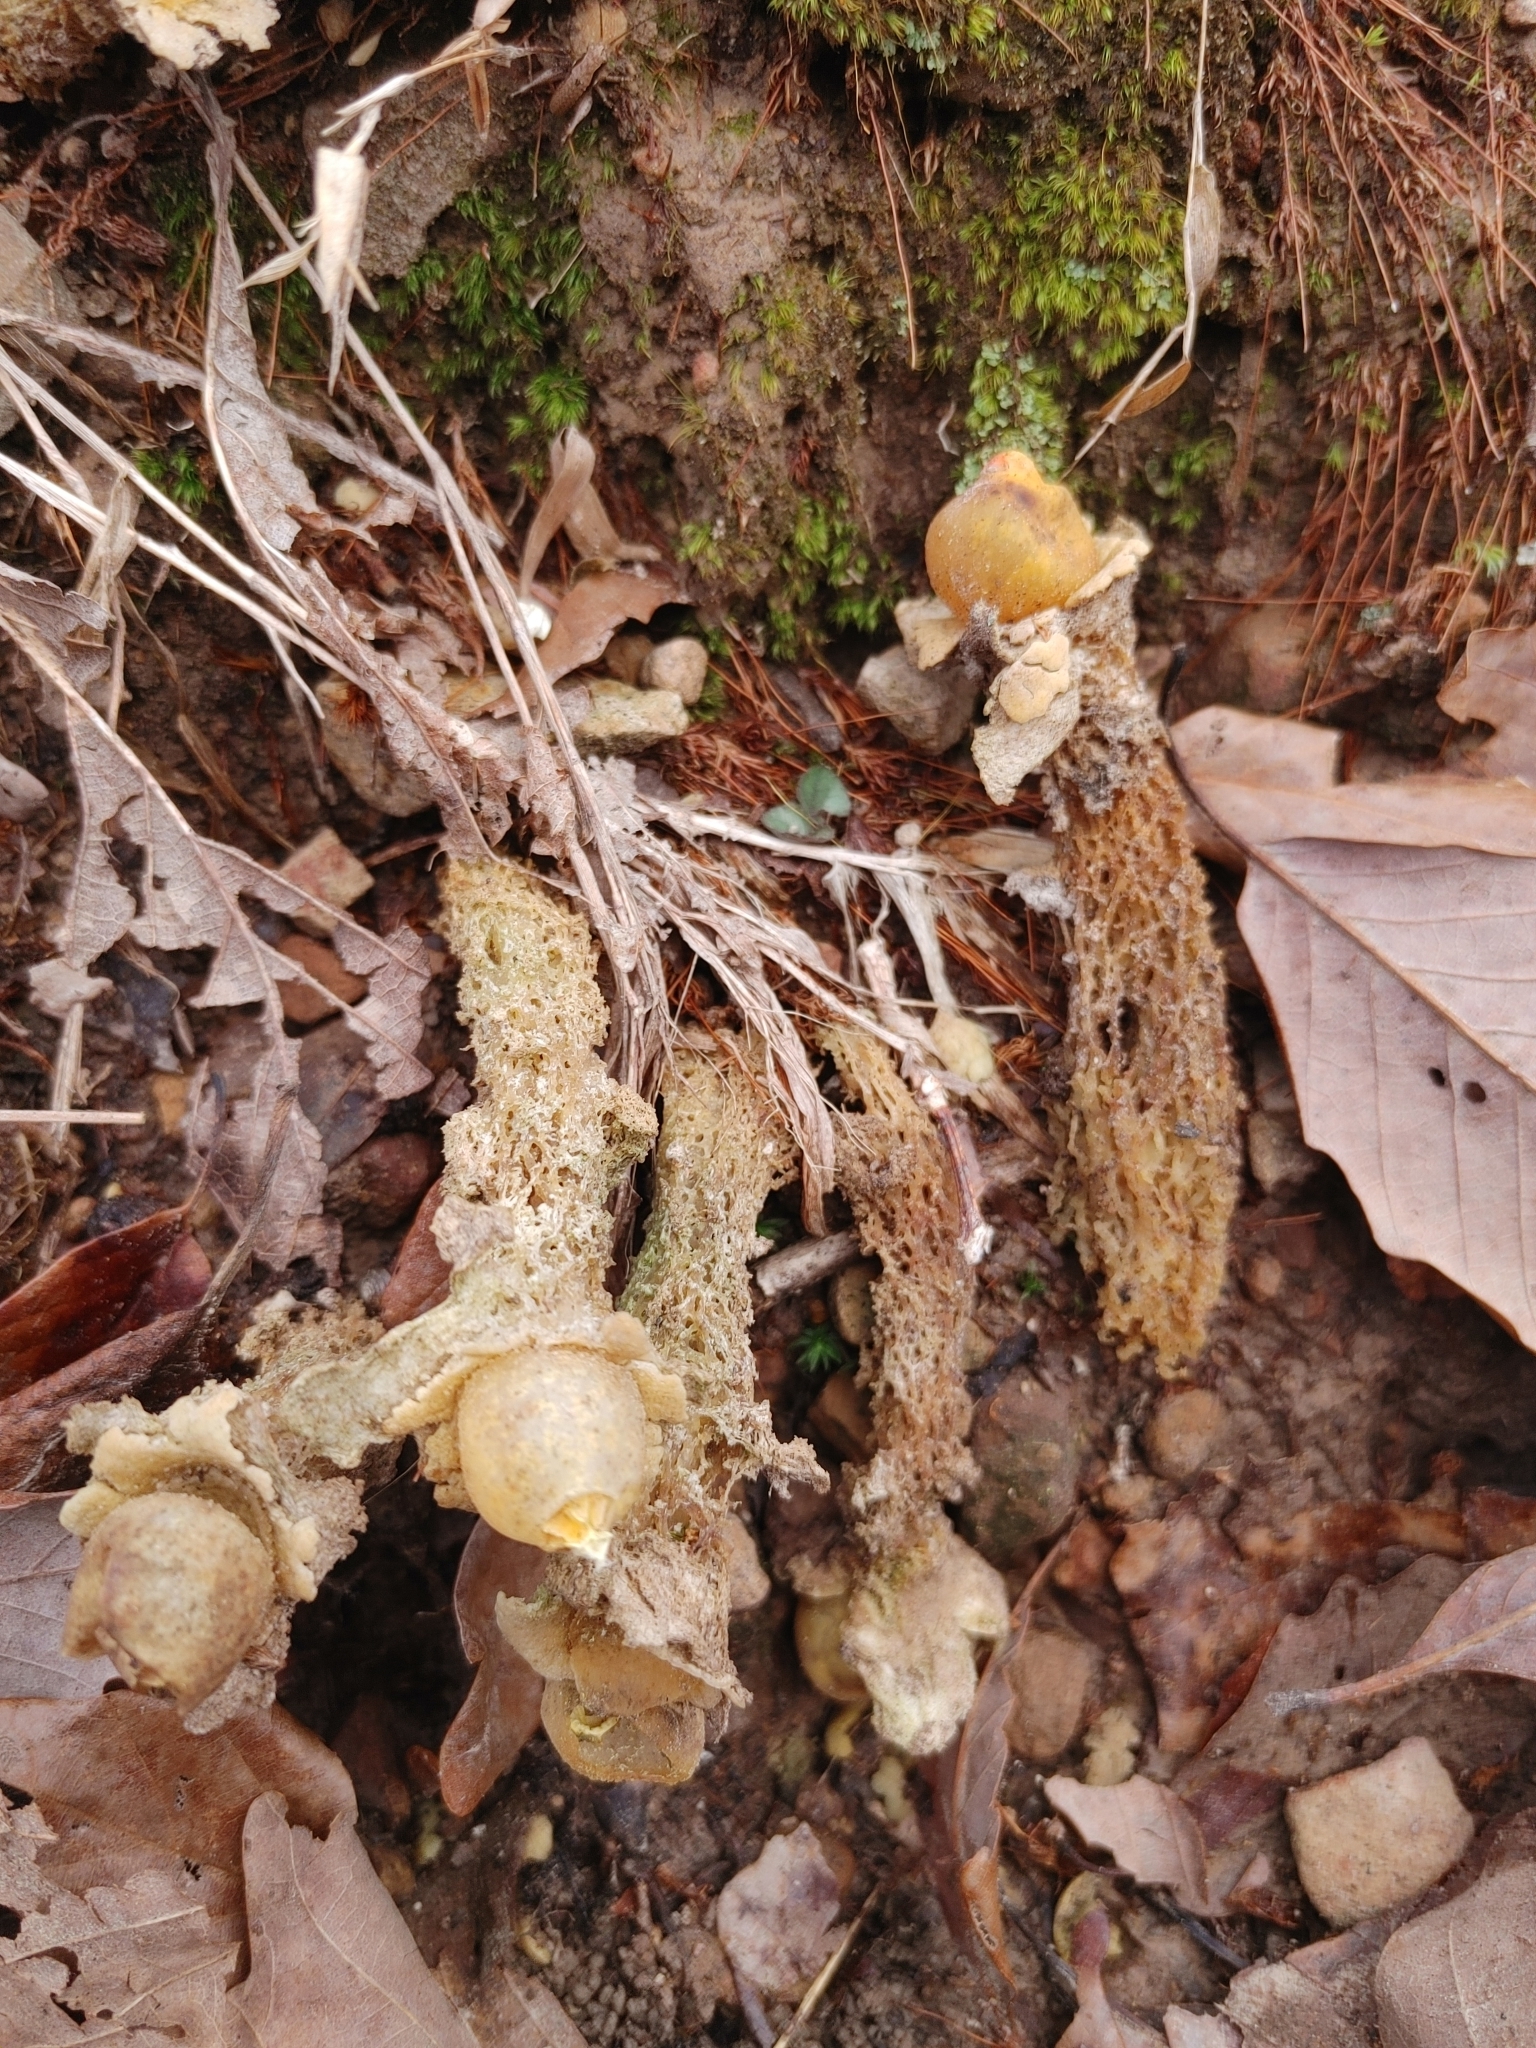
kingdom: Fungi
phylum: Basidiomycota
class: Agaricomycetes
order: Boletales
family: Calostomataceae
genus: Calostoma
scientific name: Calostoma lutescens
